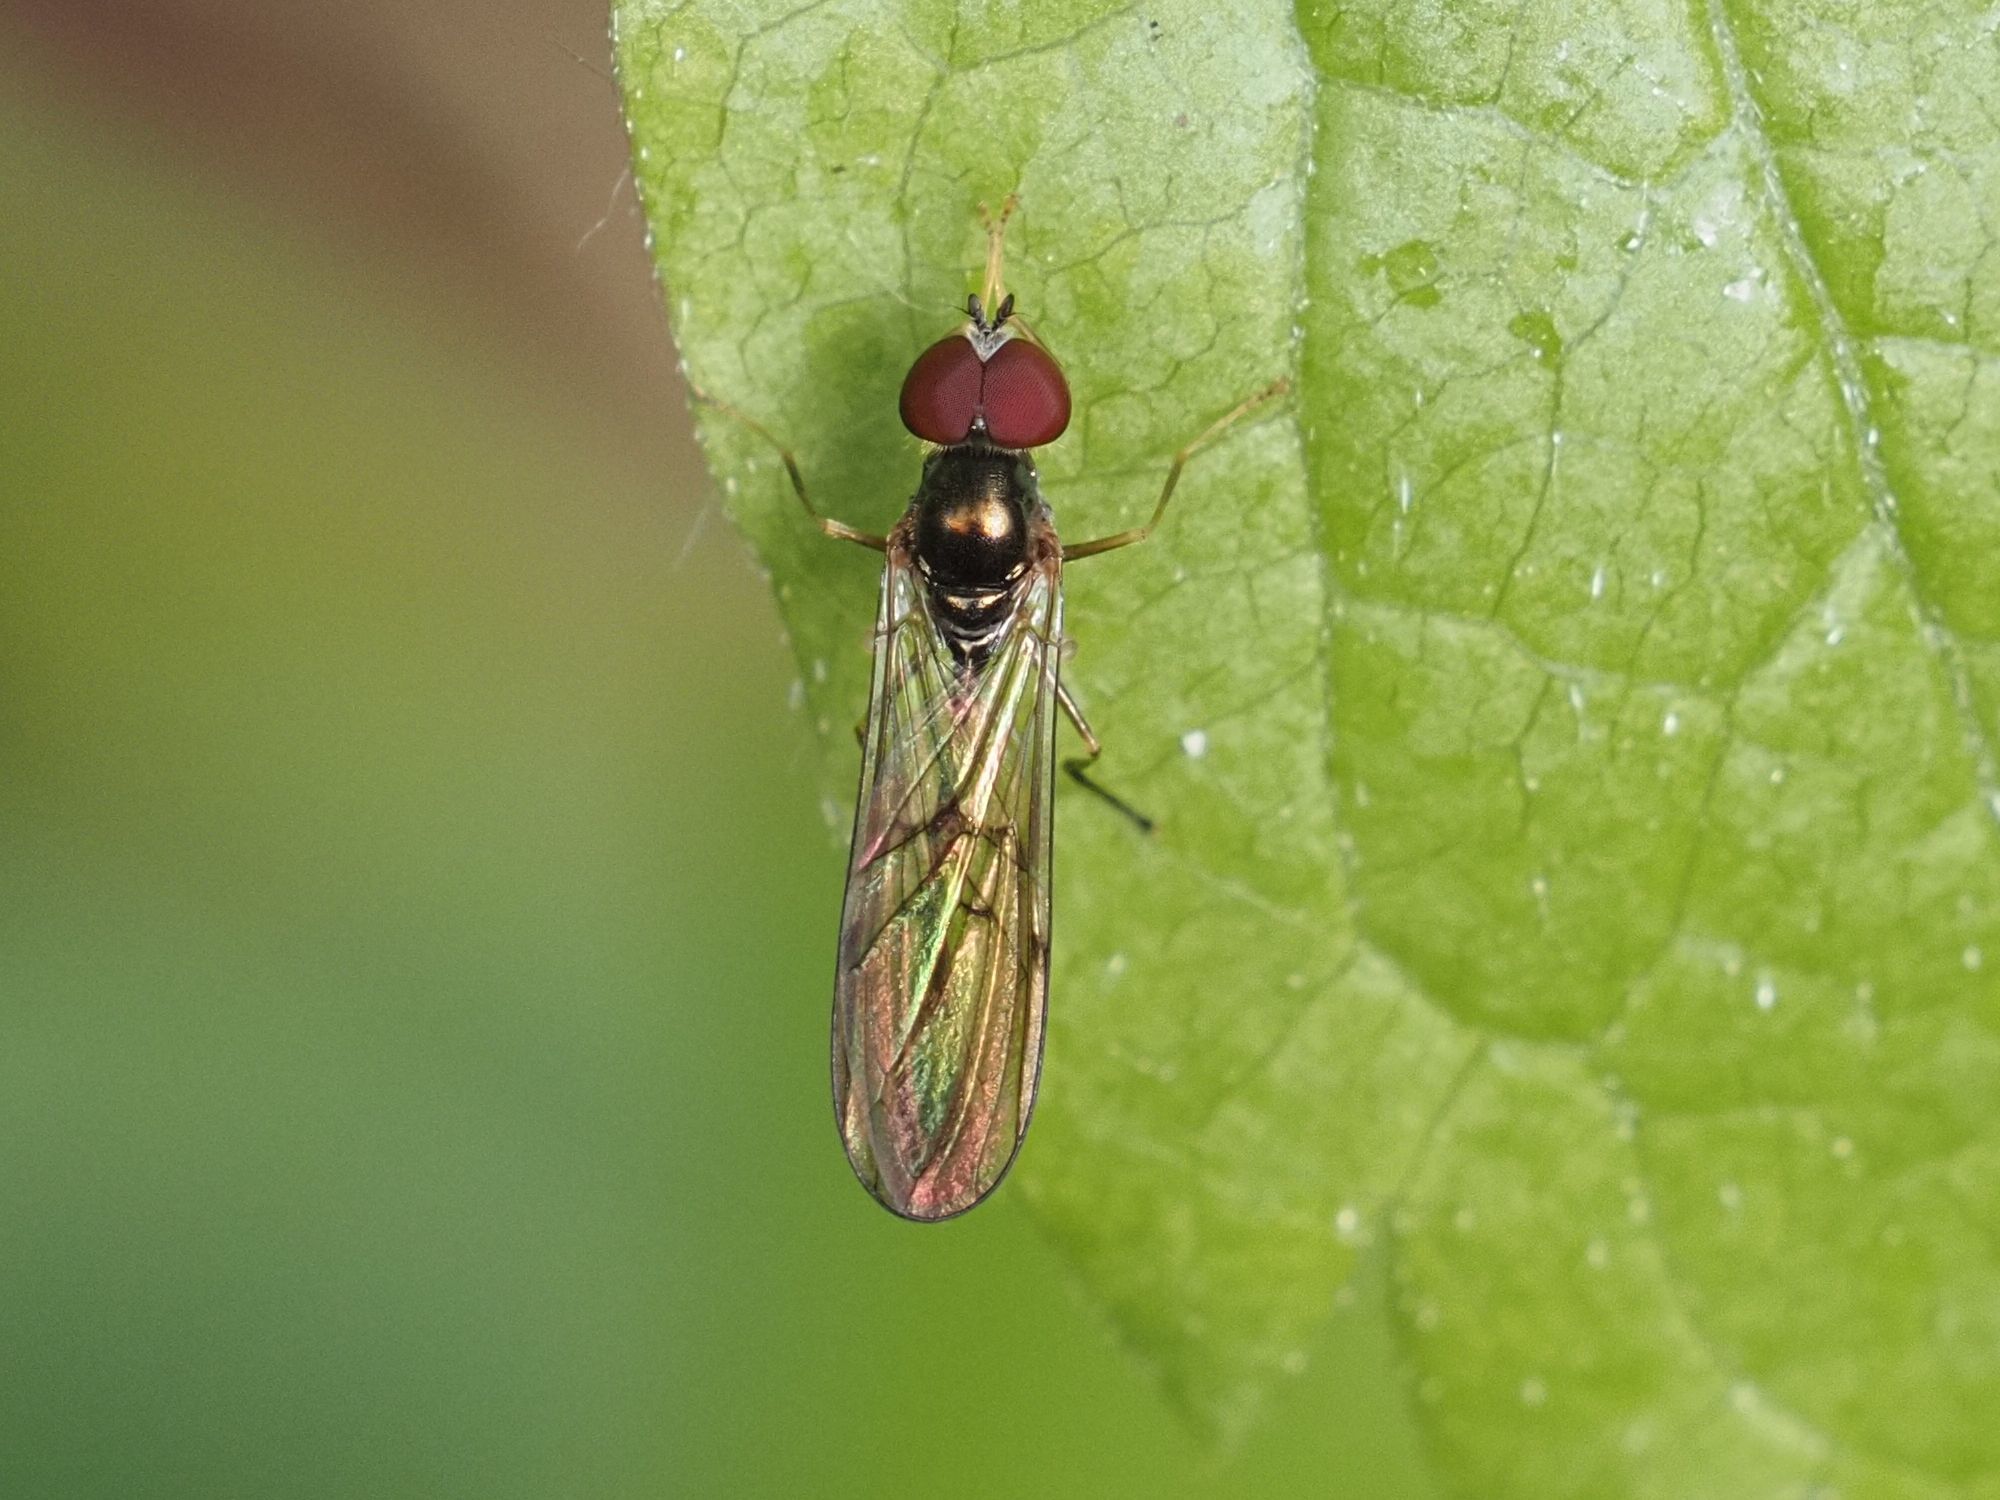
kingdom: Animalia
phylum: Arthropoda
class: Insecta
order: Diptera
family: Syrphidae
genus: Baccha
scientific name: Baccha elongata
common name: Common dainty
